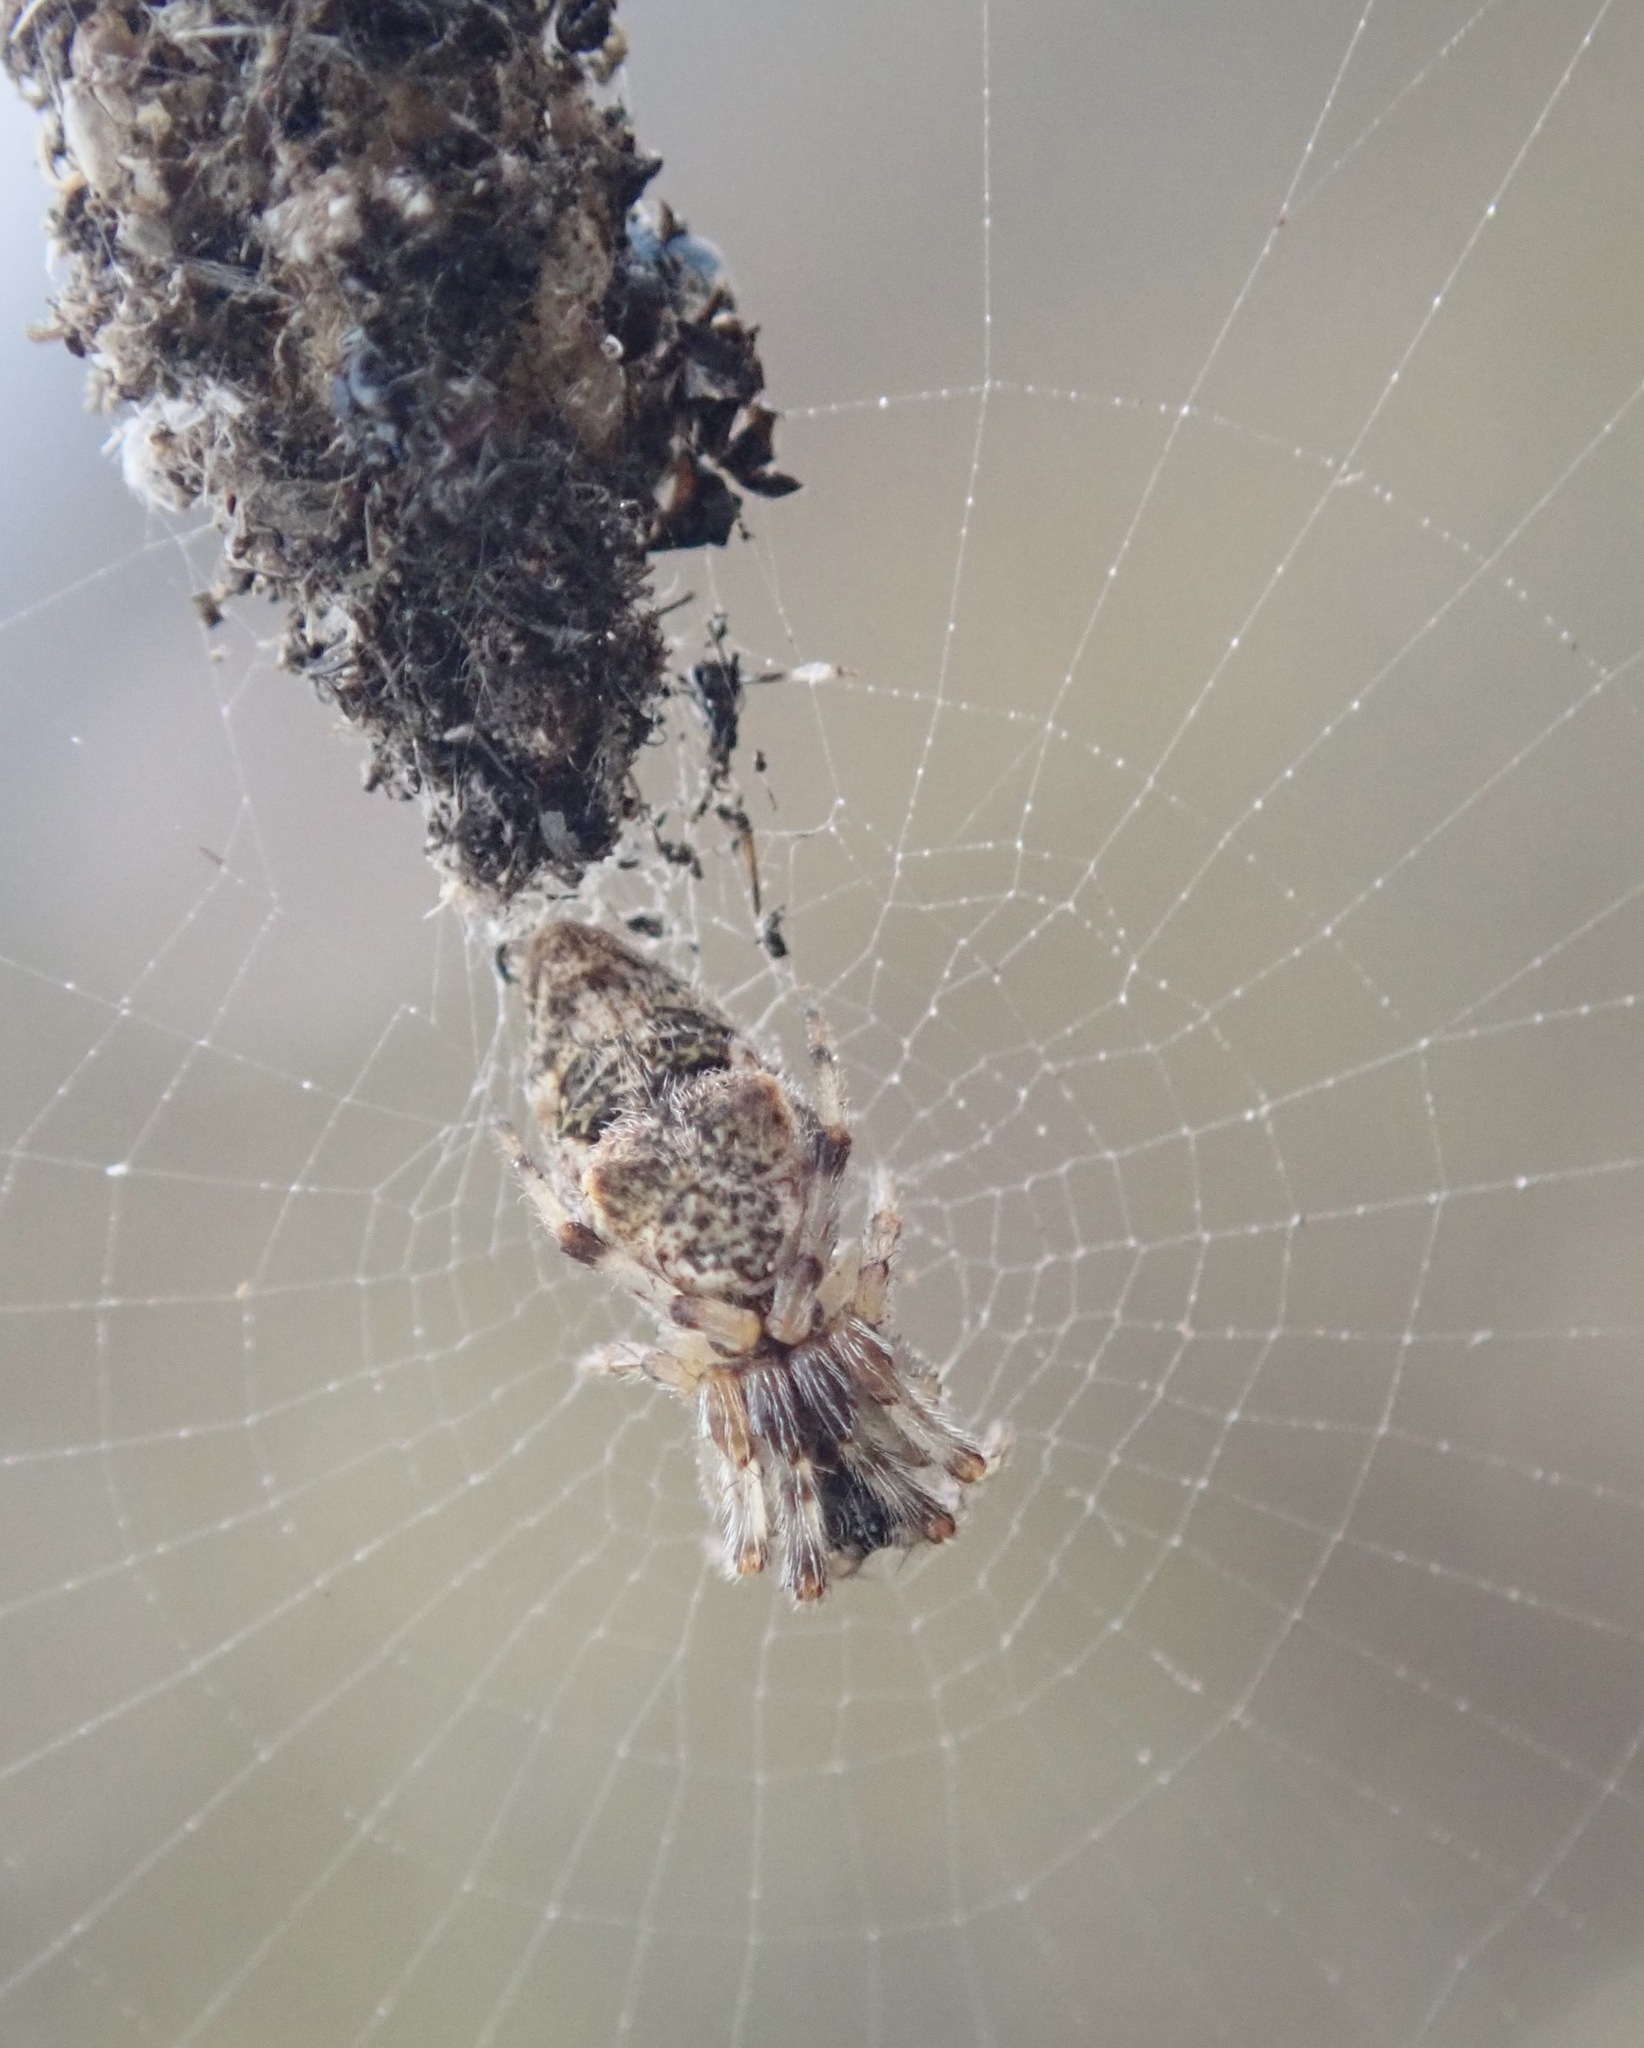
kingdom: Animalia
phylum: Arthropoda
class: Arachnida
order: Araneae
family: Araneidae
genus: Cyclosa
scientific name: Cyclosa turbinata
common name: Orb weavers
